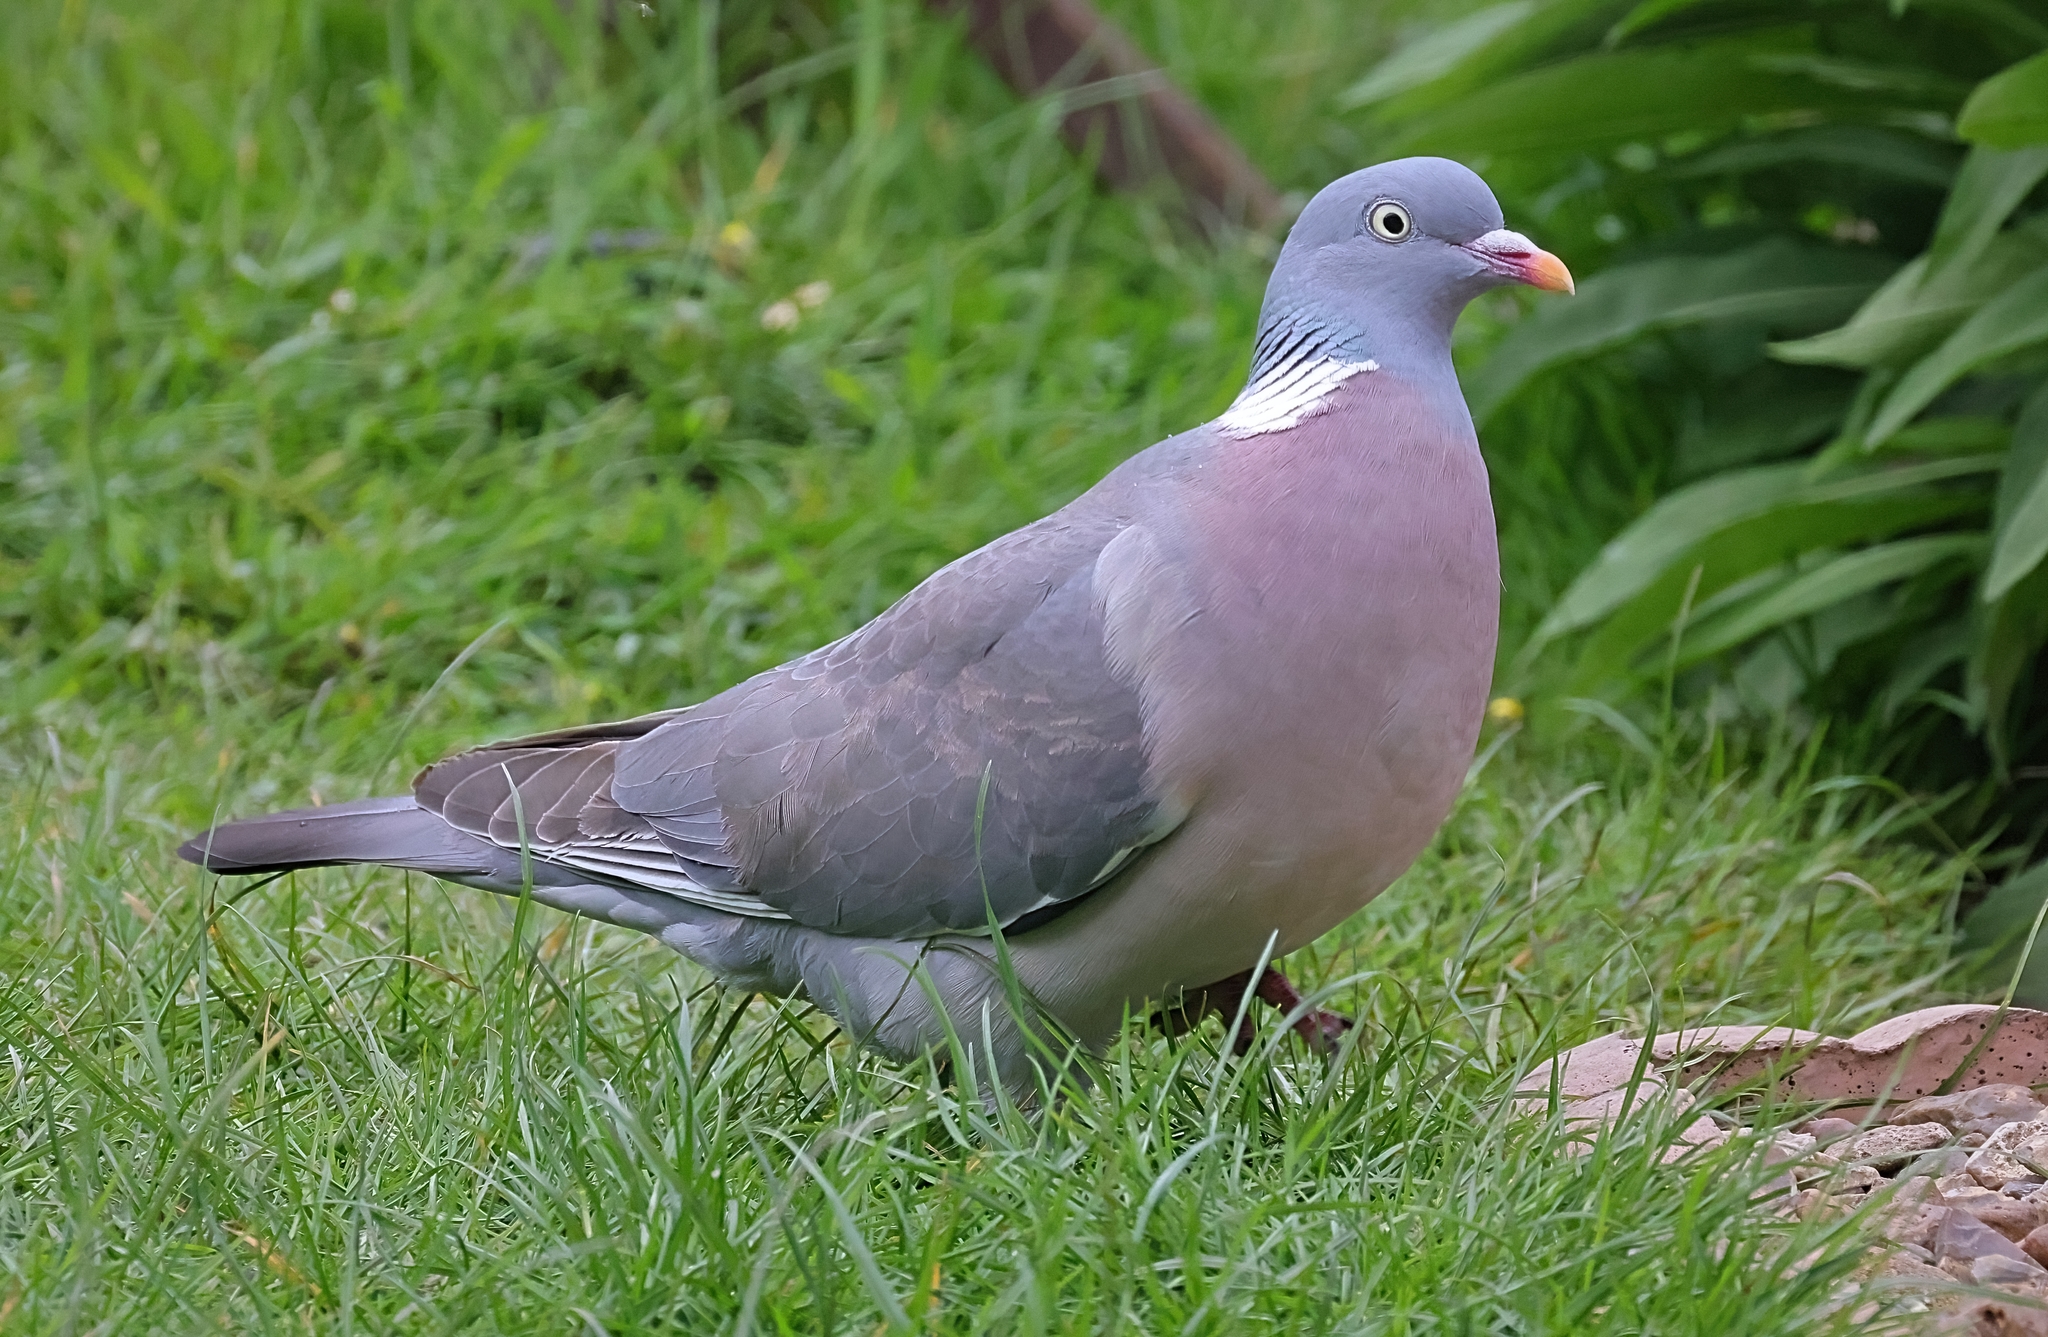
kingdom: Animalia
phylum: Chordata
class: Aves
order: Columbiformes
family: Columbidae
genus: Columba
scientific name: Columba palumbus
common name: Common wood pigeon
